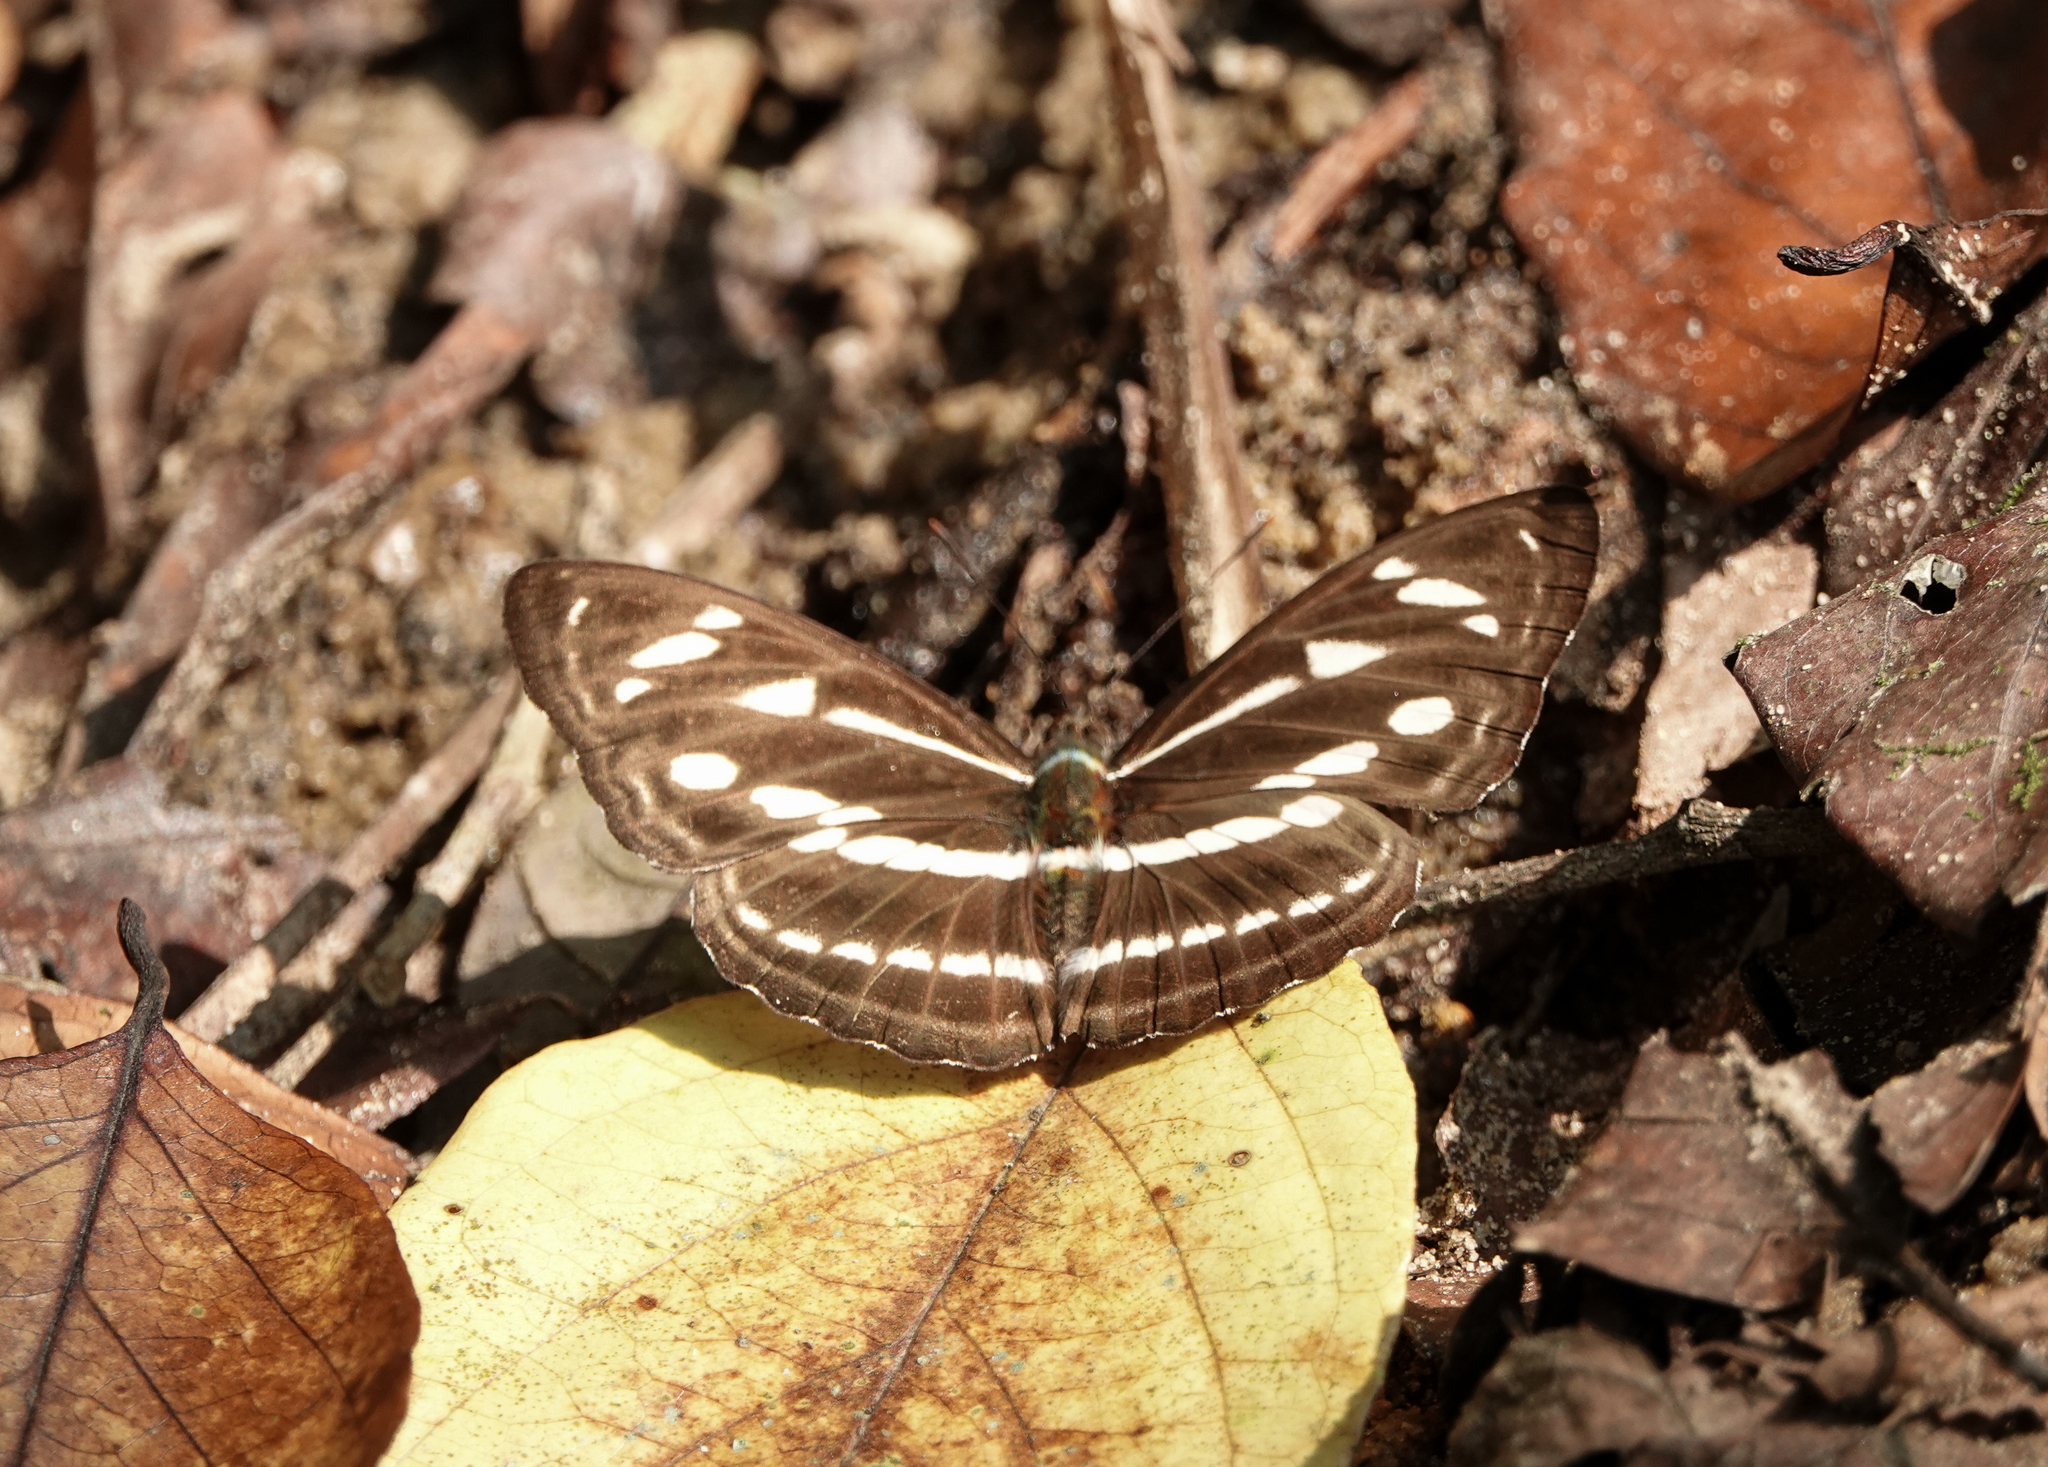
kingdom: Animalia
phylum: Arthropoda
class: Insecta
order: Lepidoptera
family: Nymphalidae
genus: Parathyma
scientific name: Parathyma kanwa
